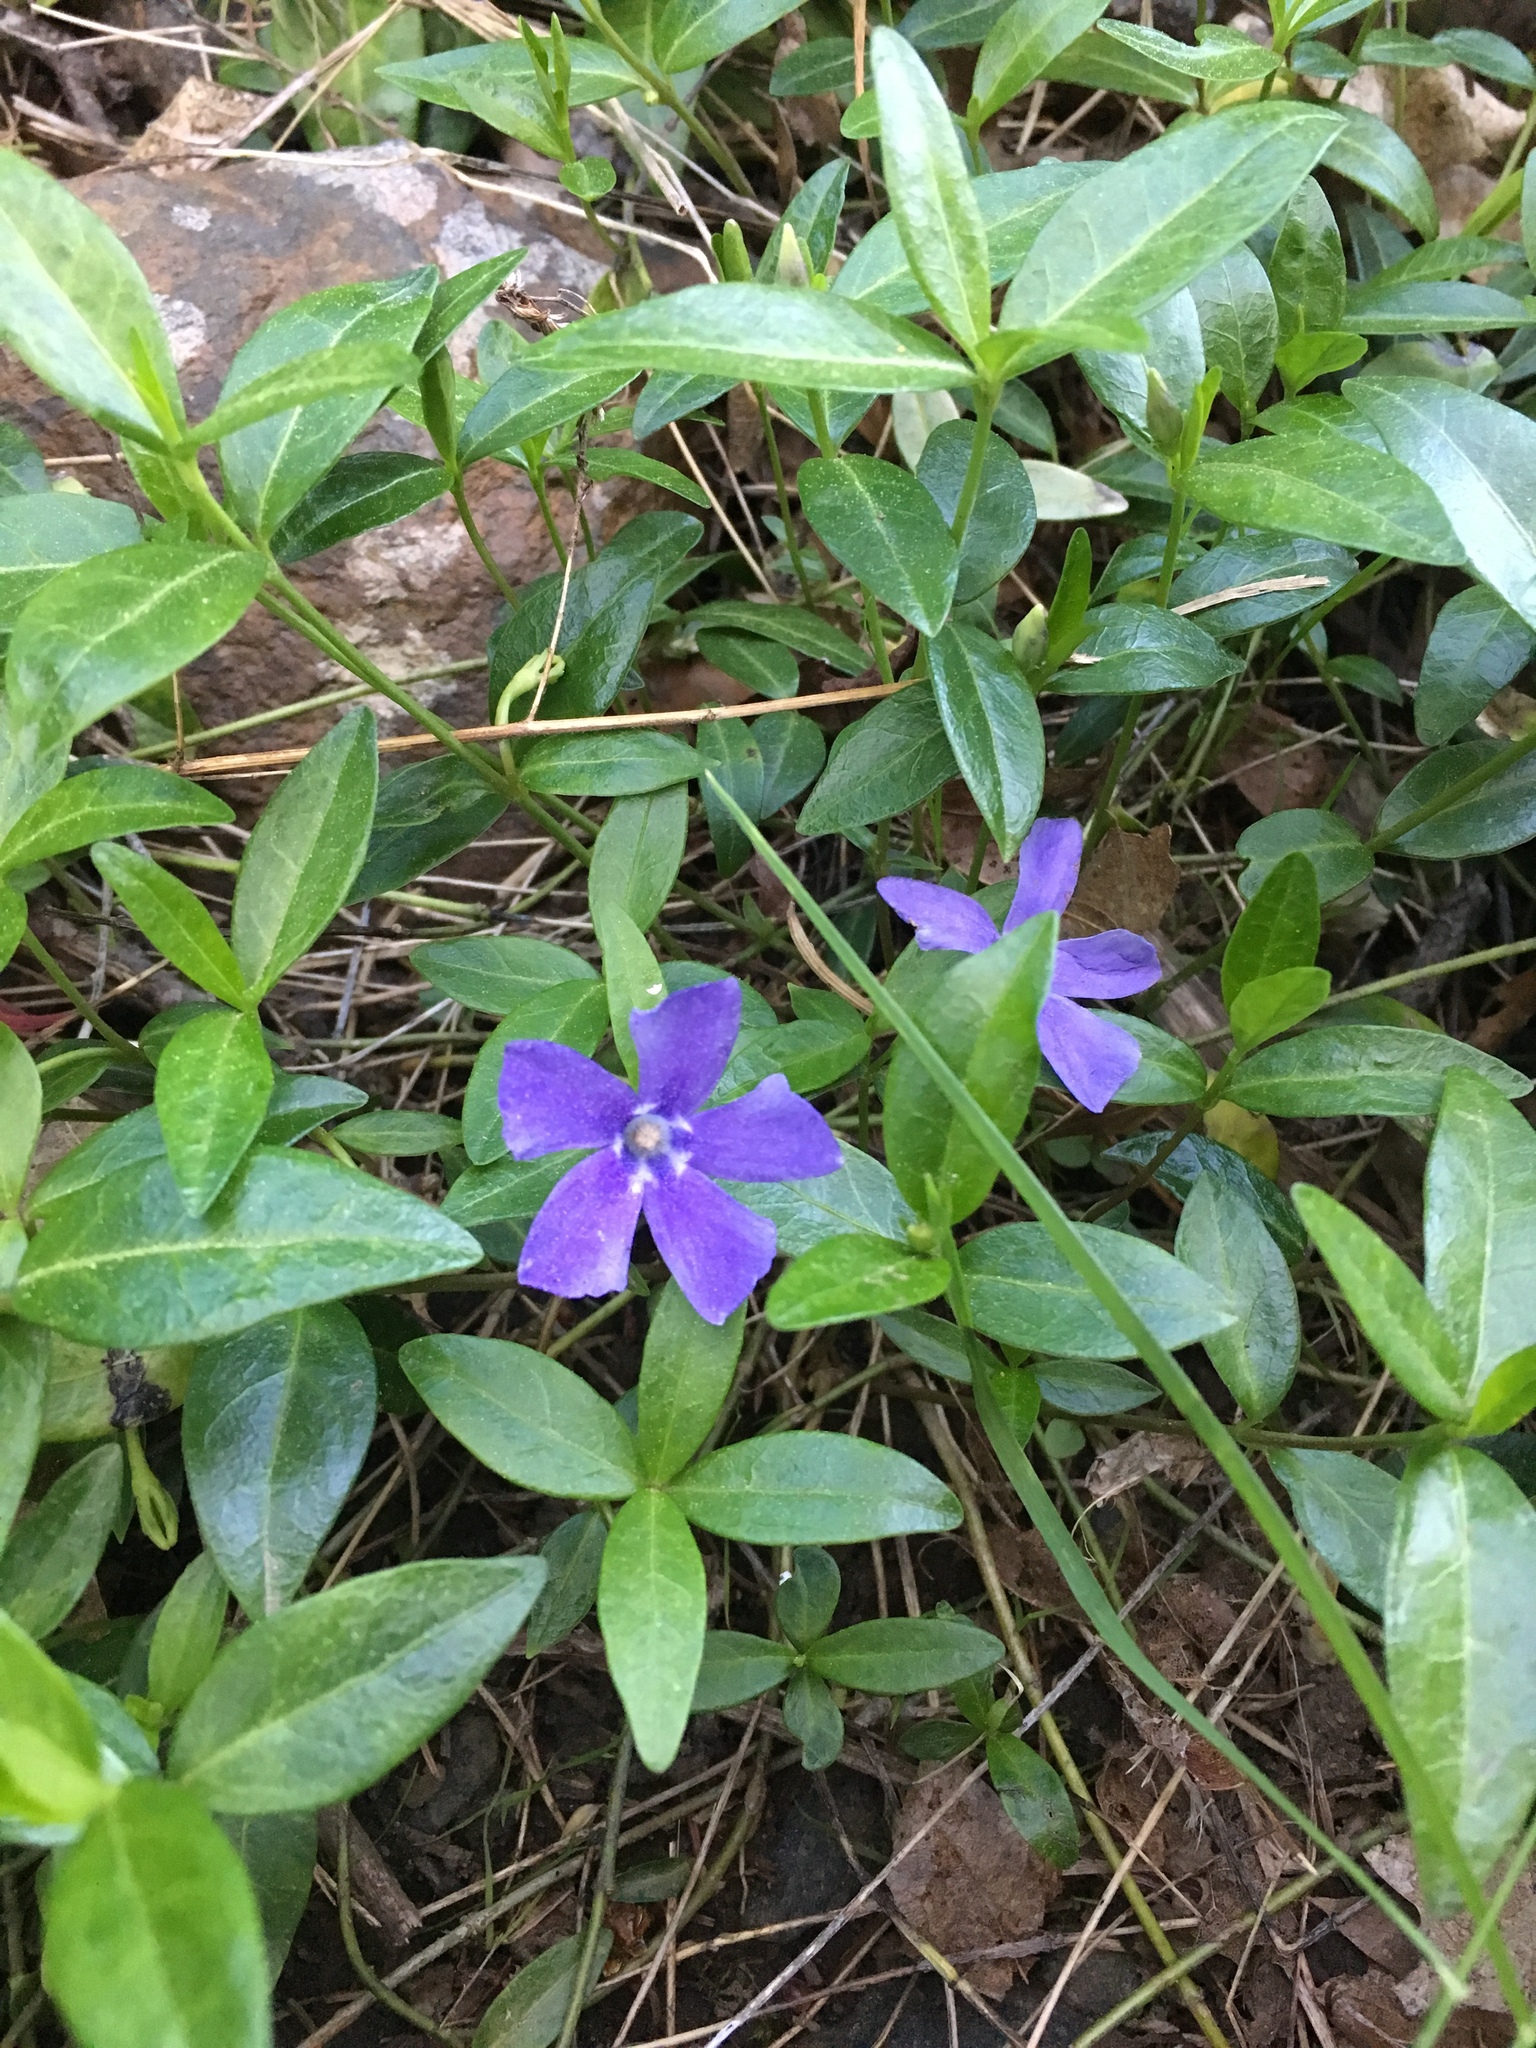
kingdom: Plantae
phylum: Tracheophyta
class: Magnoliopsida
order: Gentianales
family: Apocynaceae
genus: Vinca
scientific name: Vinca minor
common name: Lesser periwinkle
